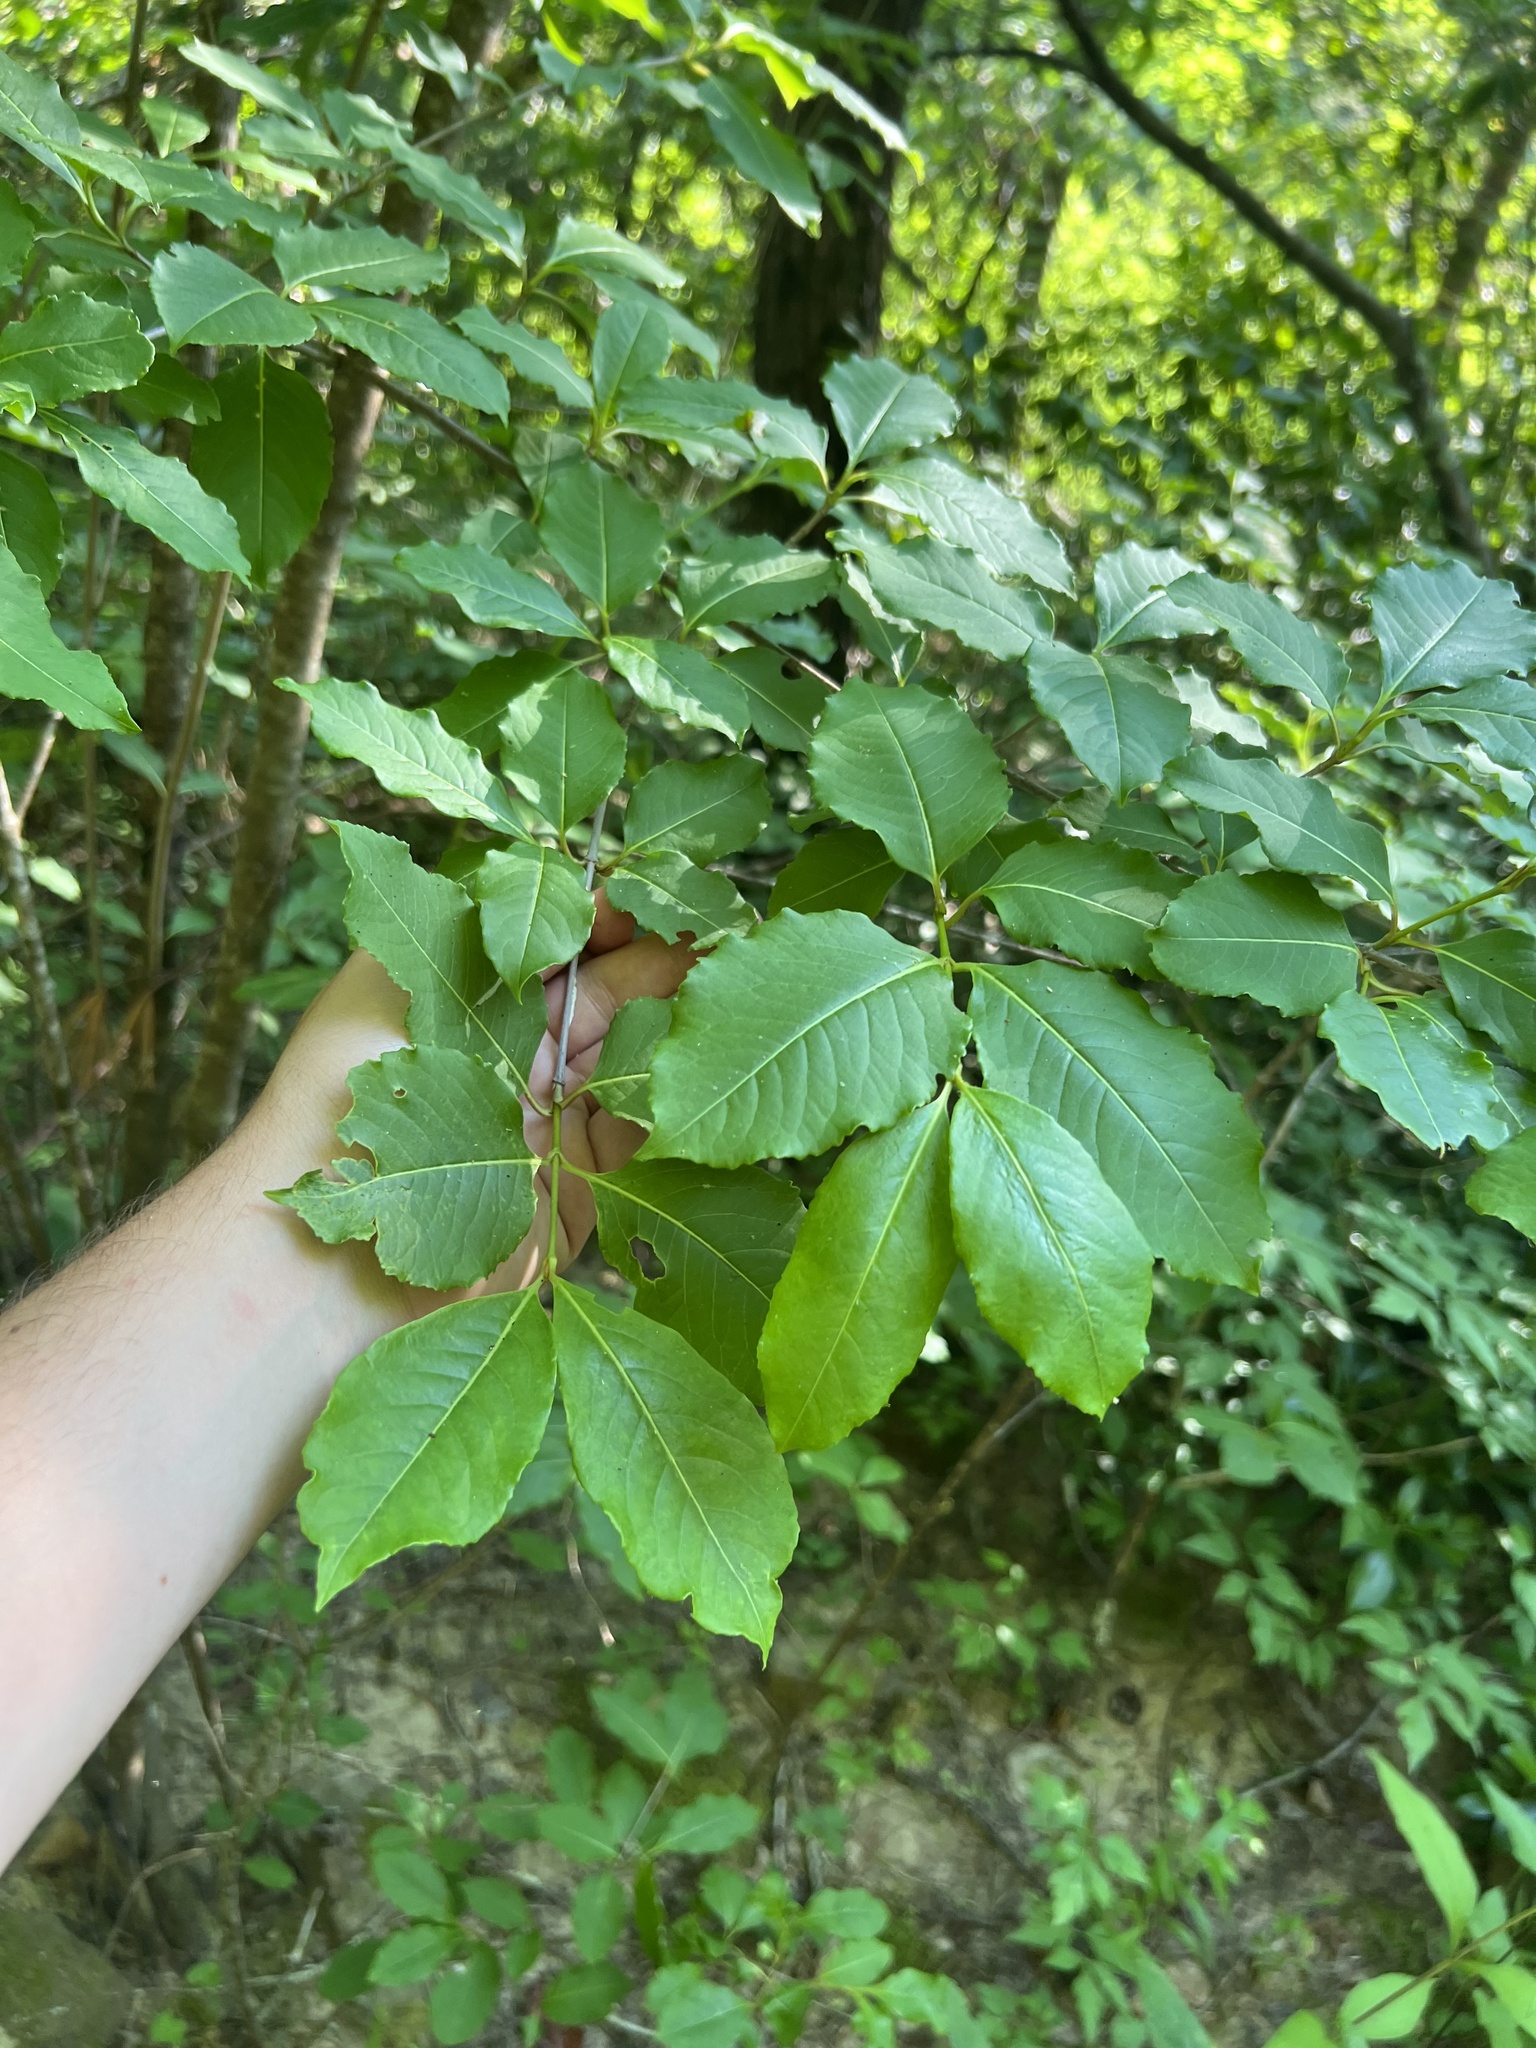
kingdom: Plantae
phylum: Tracheophyta
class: Magnoliopsida
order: Dipsacales
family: Viburnaceae
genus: Viburnum
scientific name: Viburnum cassinoides
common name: Swamp haw
